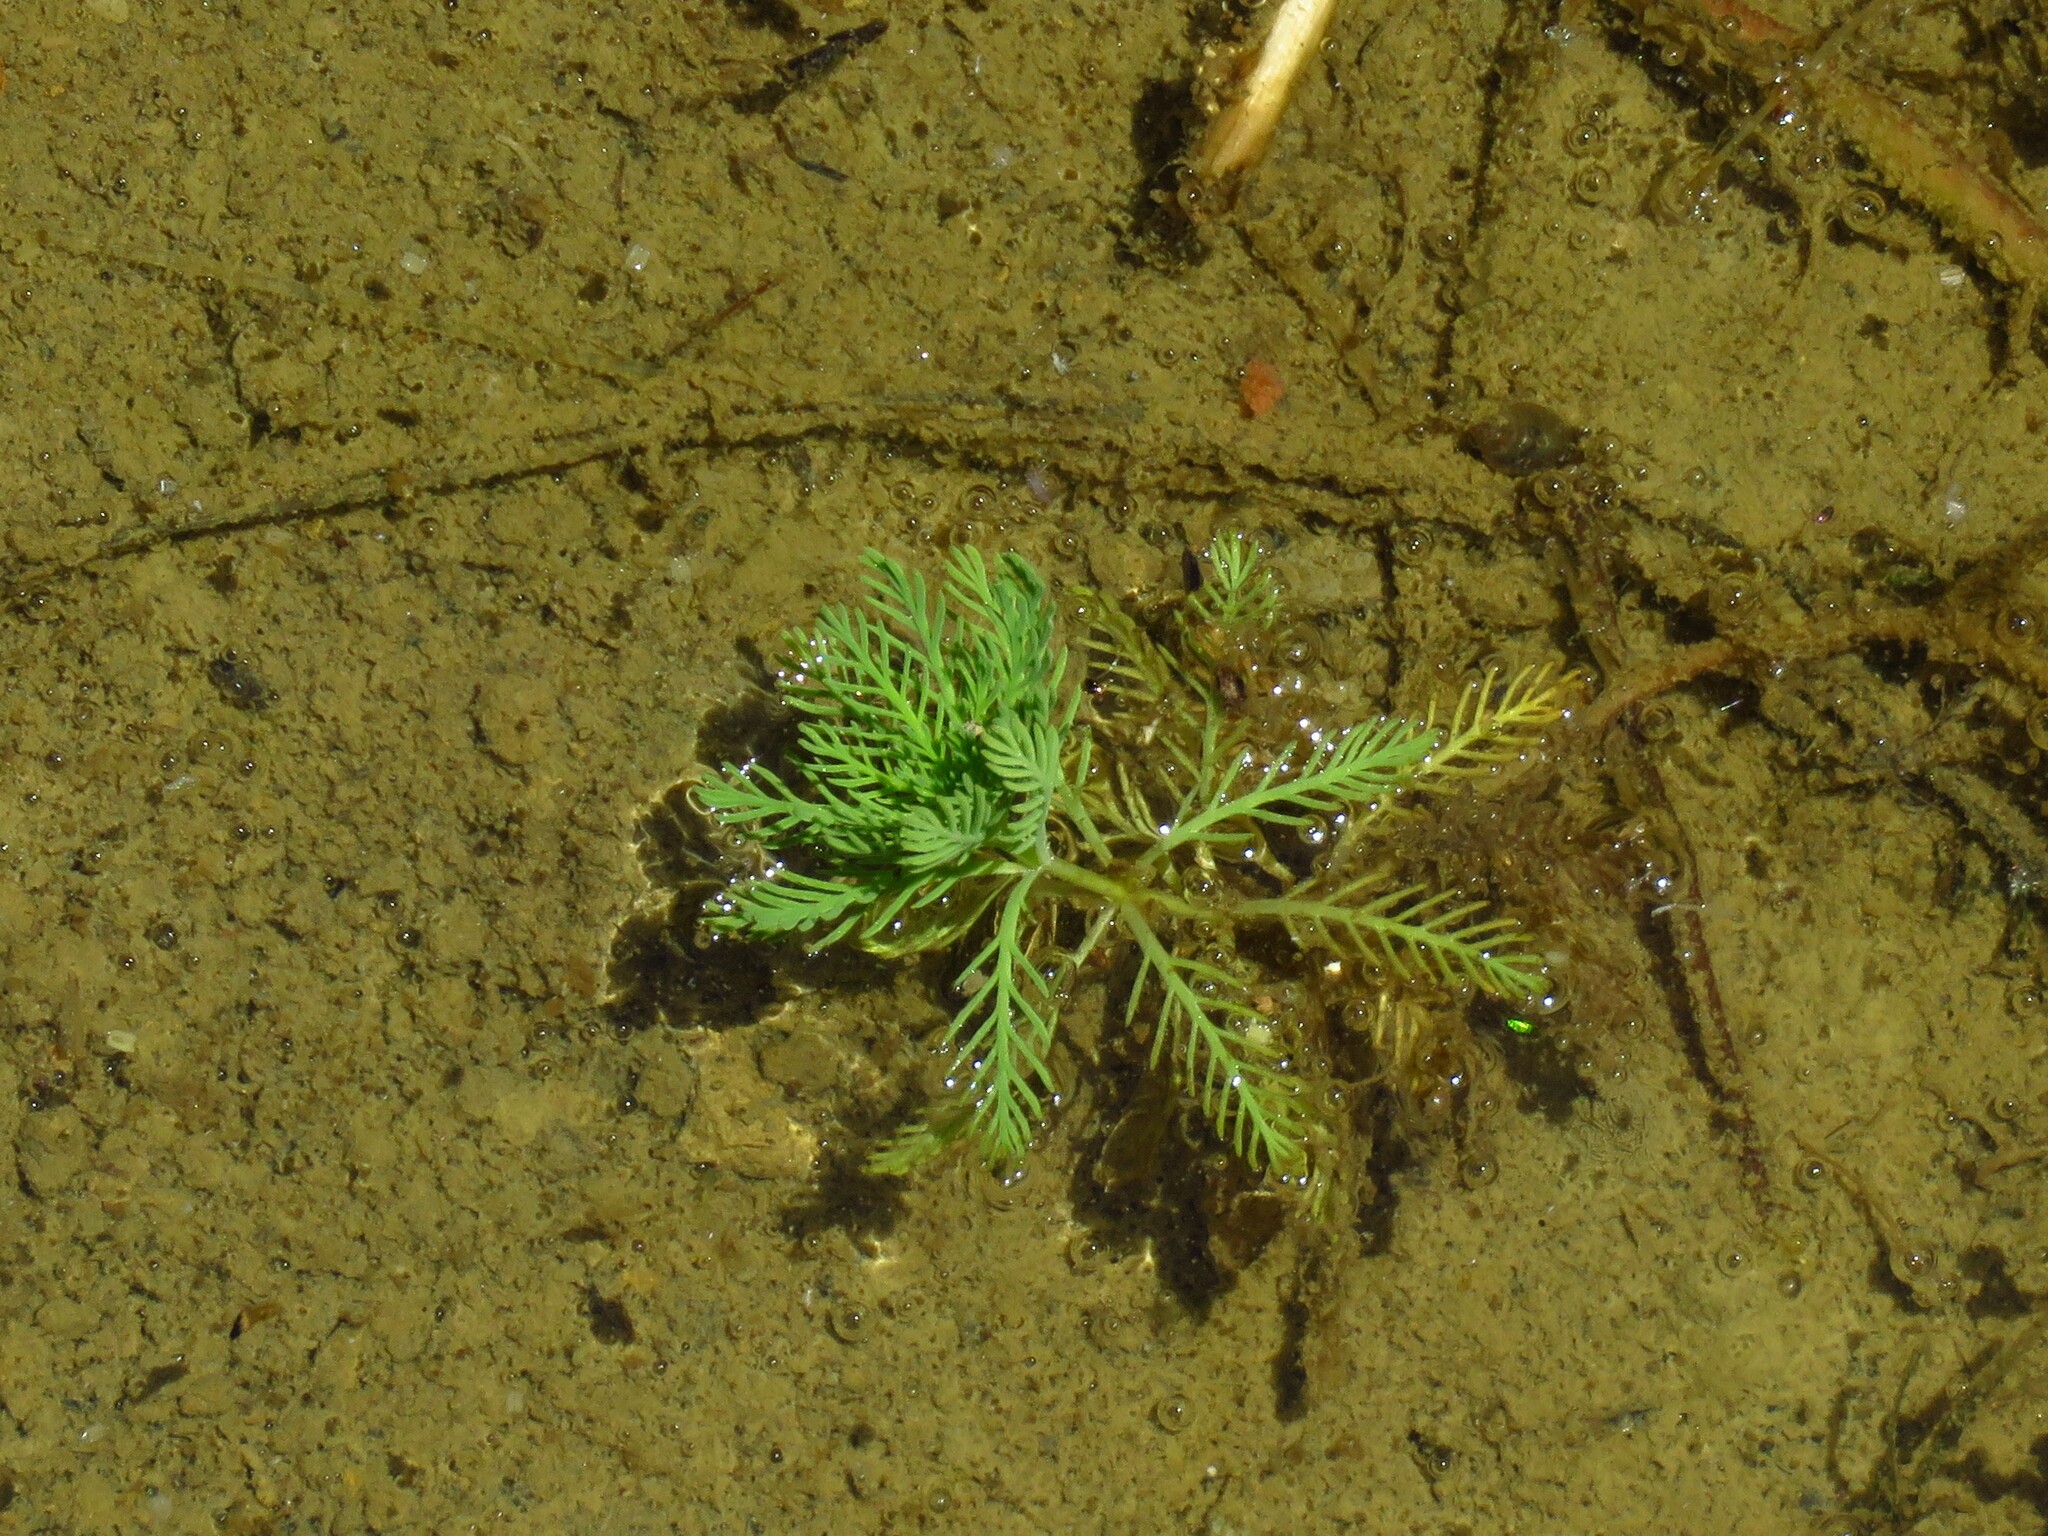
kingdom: Plantae
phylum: Tracheophyta
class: Magnoliopsida
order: Saxifragales
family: Haloragaceae
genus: Myriophyllum
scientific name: Myriophyllum aquaticum
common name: Parrot's feather
